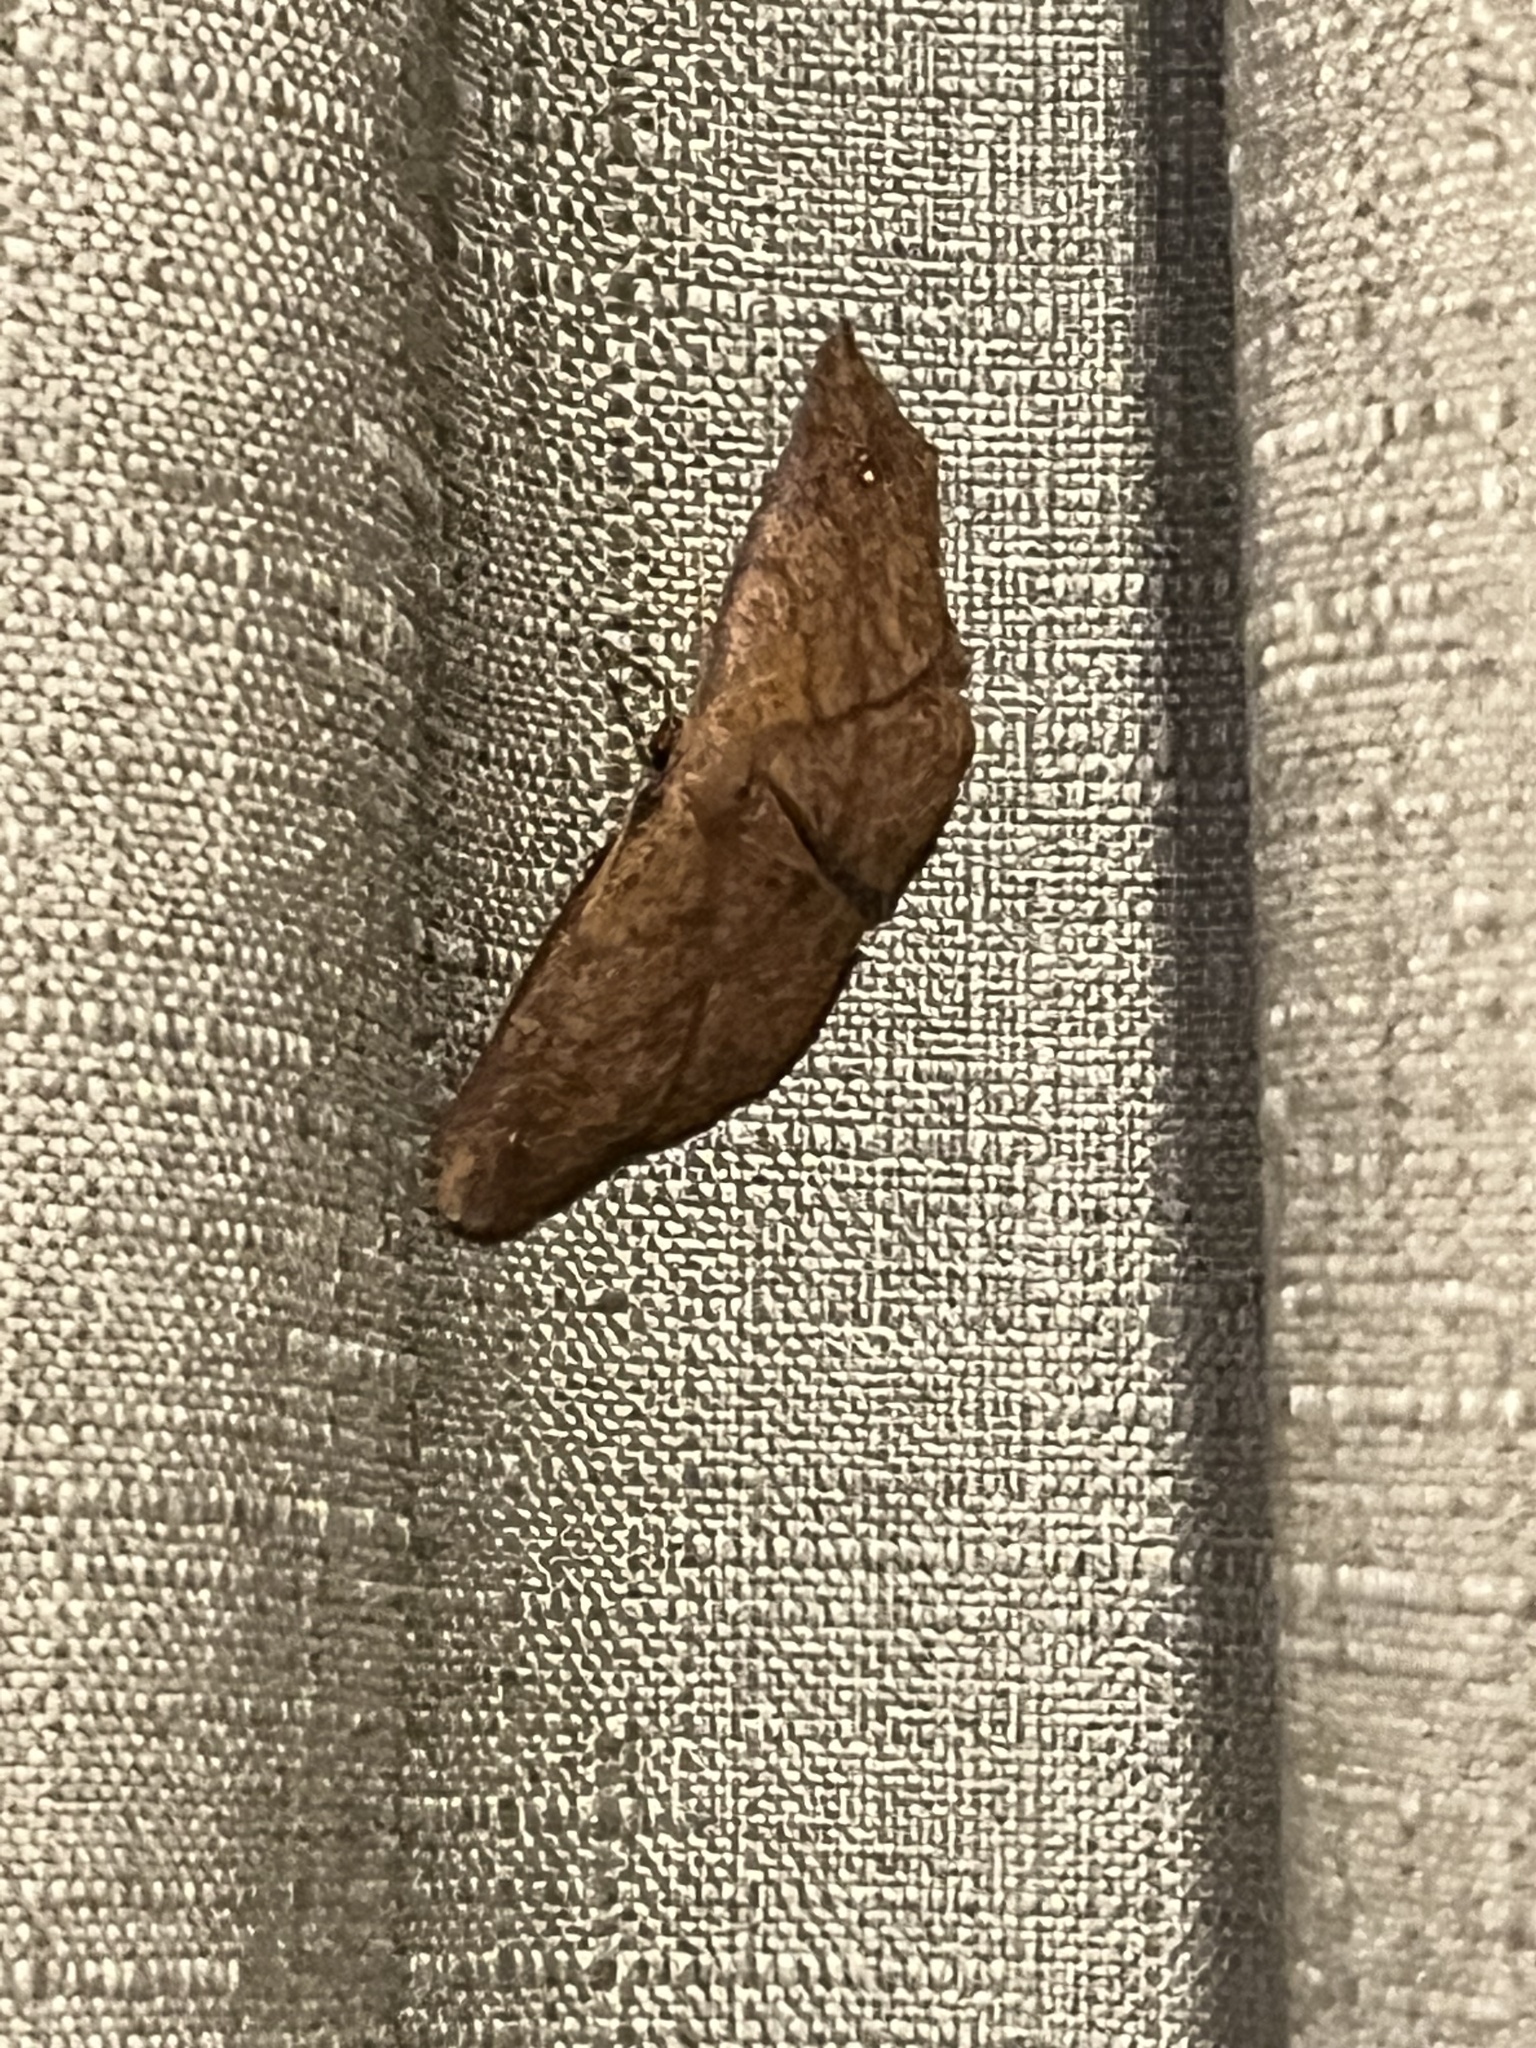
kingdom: Animalia
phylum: Arthropoda
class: Insecta
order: Lepidoptera
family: Geometridae
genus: Xyridacma
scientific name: Xyridacma ustaria
